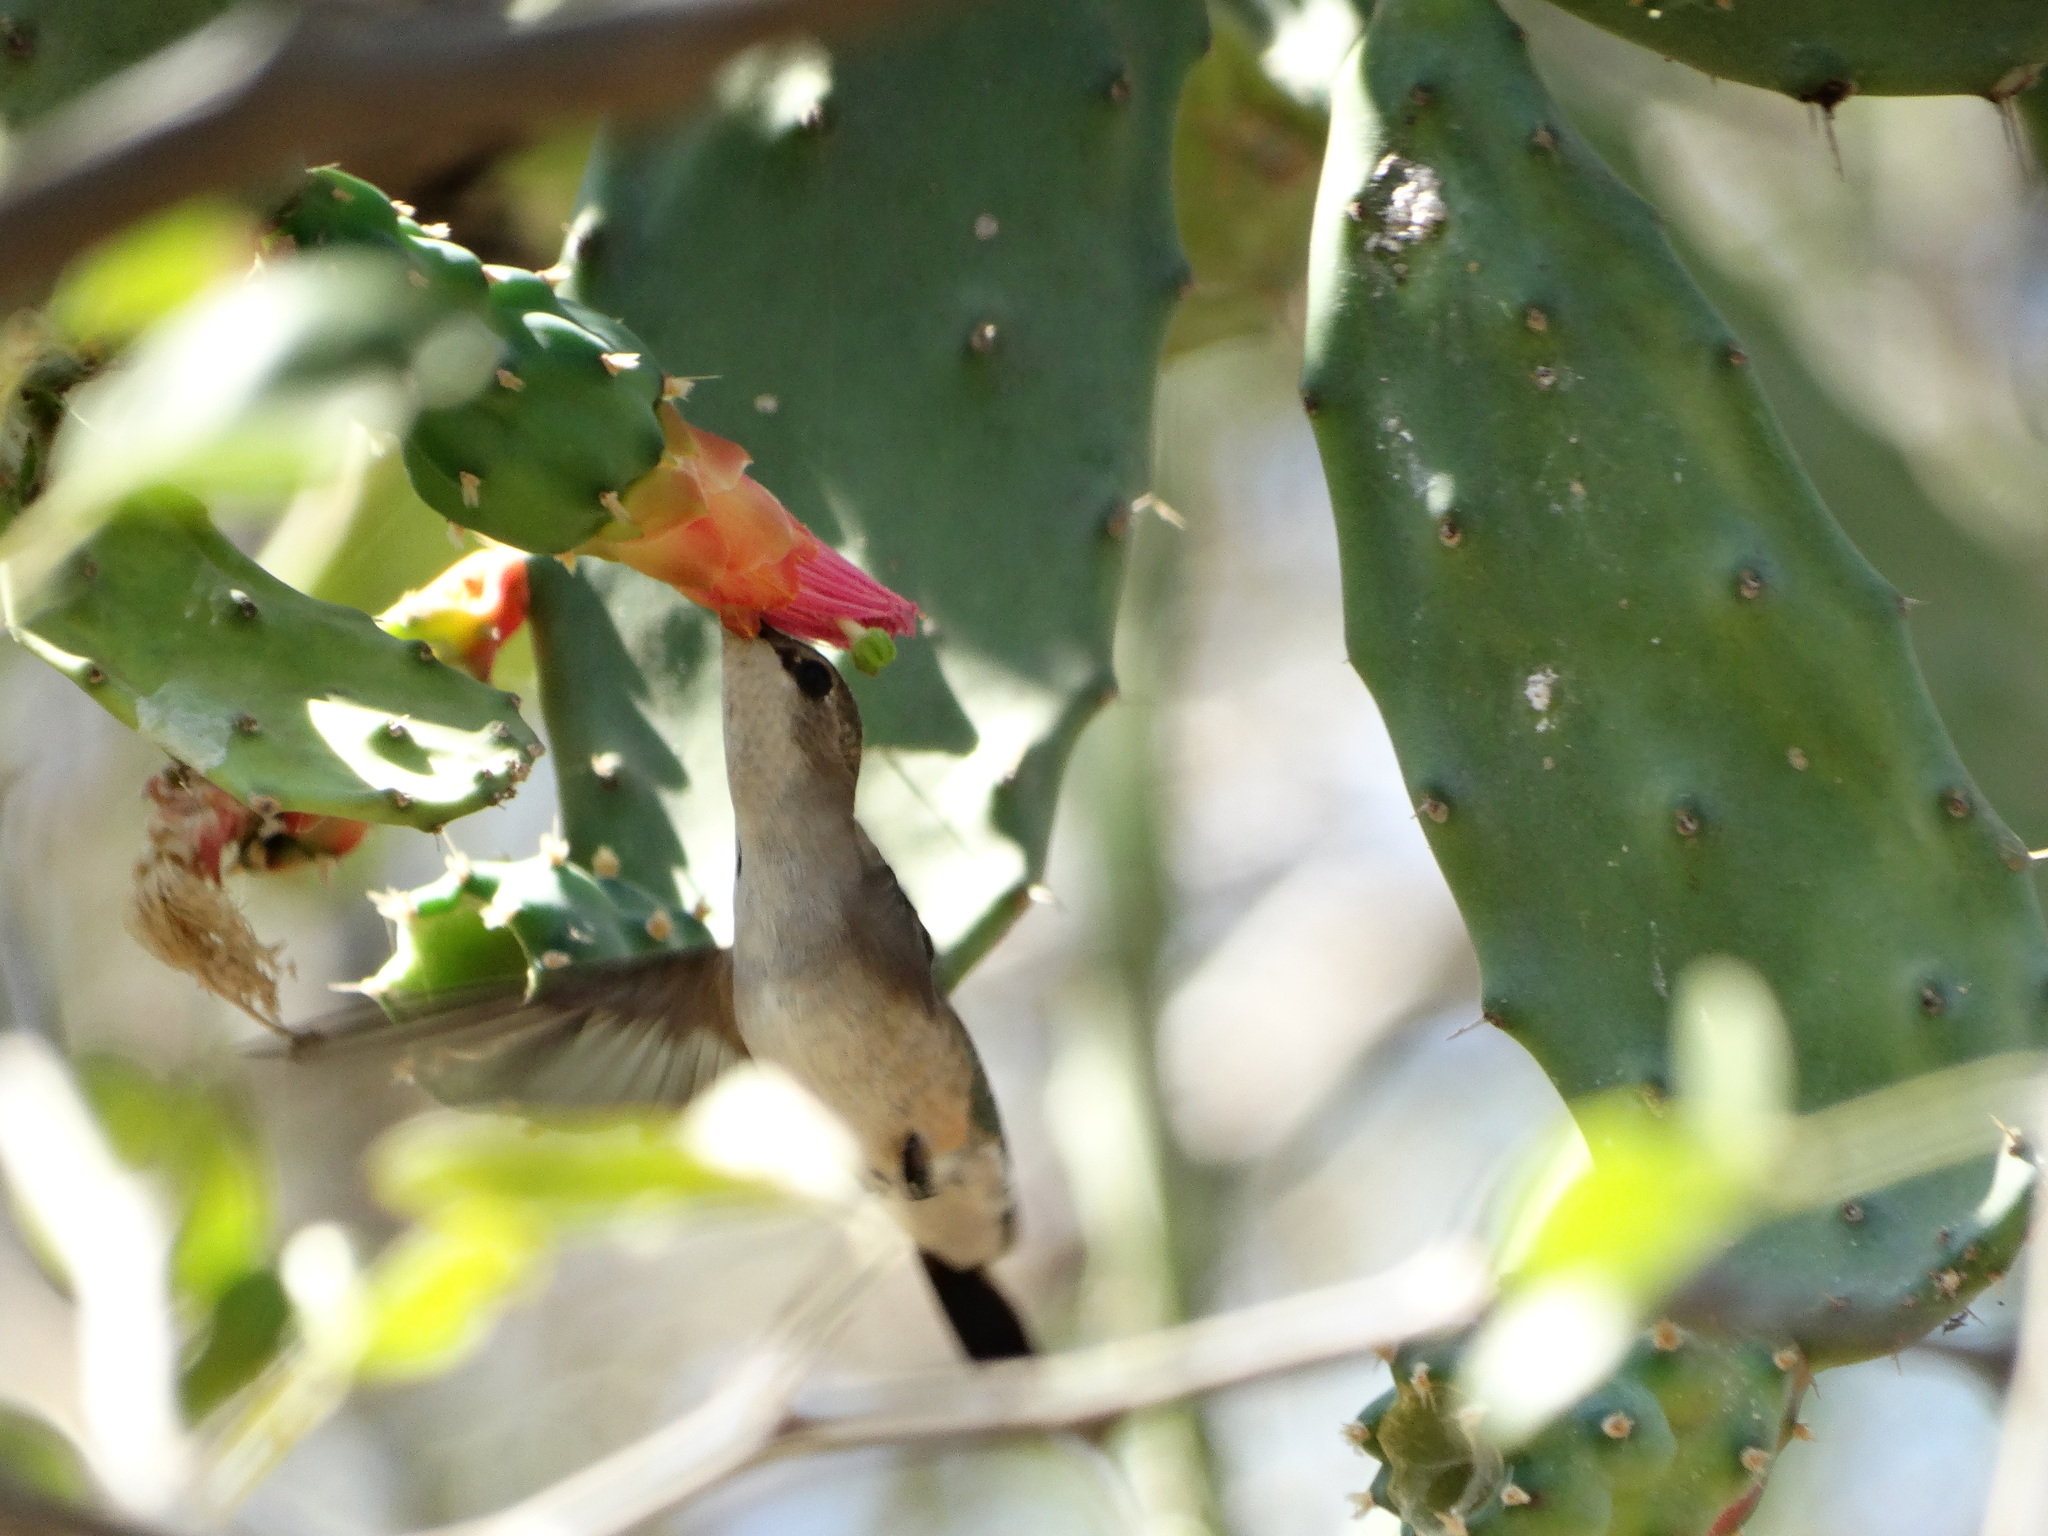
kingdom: Animalia
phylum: Chordata
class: Aves
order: Apodiformes
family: Trochilidae
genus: Archilochus
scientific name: Archilochus colubris
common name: Ruby-throated hummingbird
